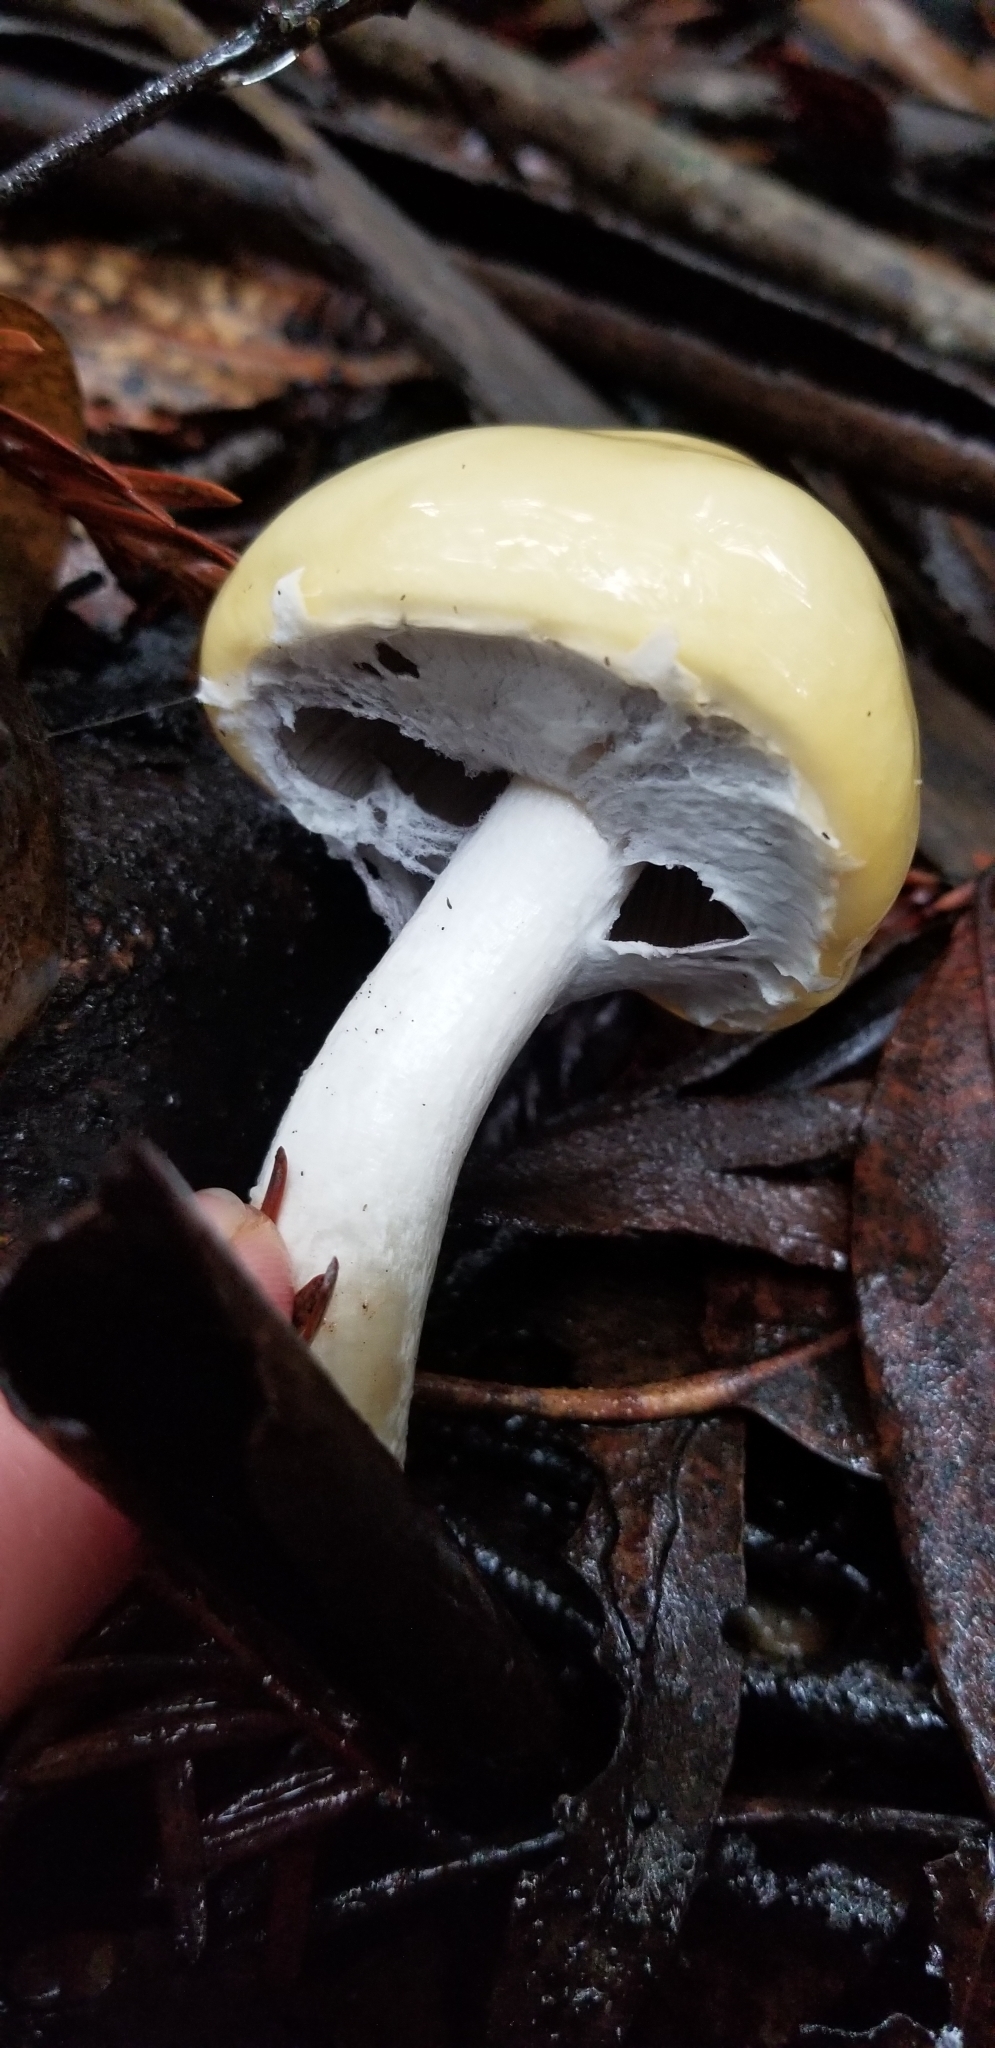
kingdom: Fungi
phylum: Basidiomycota
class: Agaricomycetes
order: Agaricales
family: Strophariaceae
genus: Stropharia
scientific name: Stropharia ambigua
